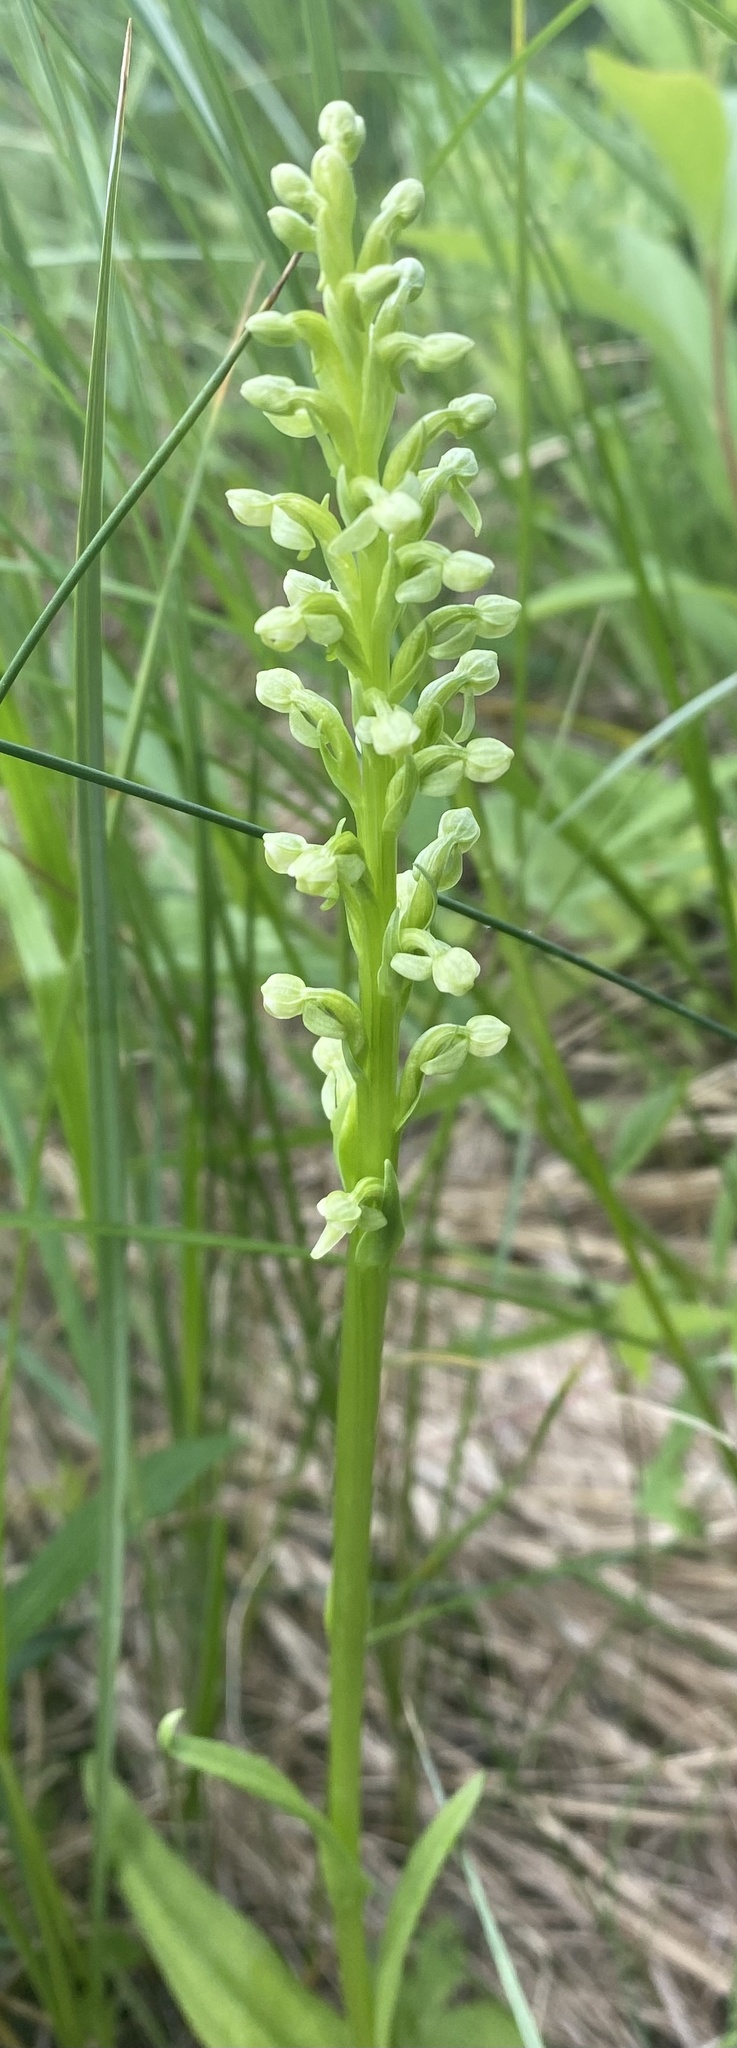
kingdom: Plantae
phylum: Tracheophyta
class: Liliopsida
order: Asparagales
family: Orchidaceae
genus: Platanthera
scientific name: Platanthera huronensis
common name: Fragrant green orchid
